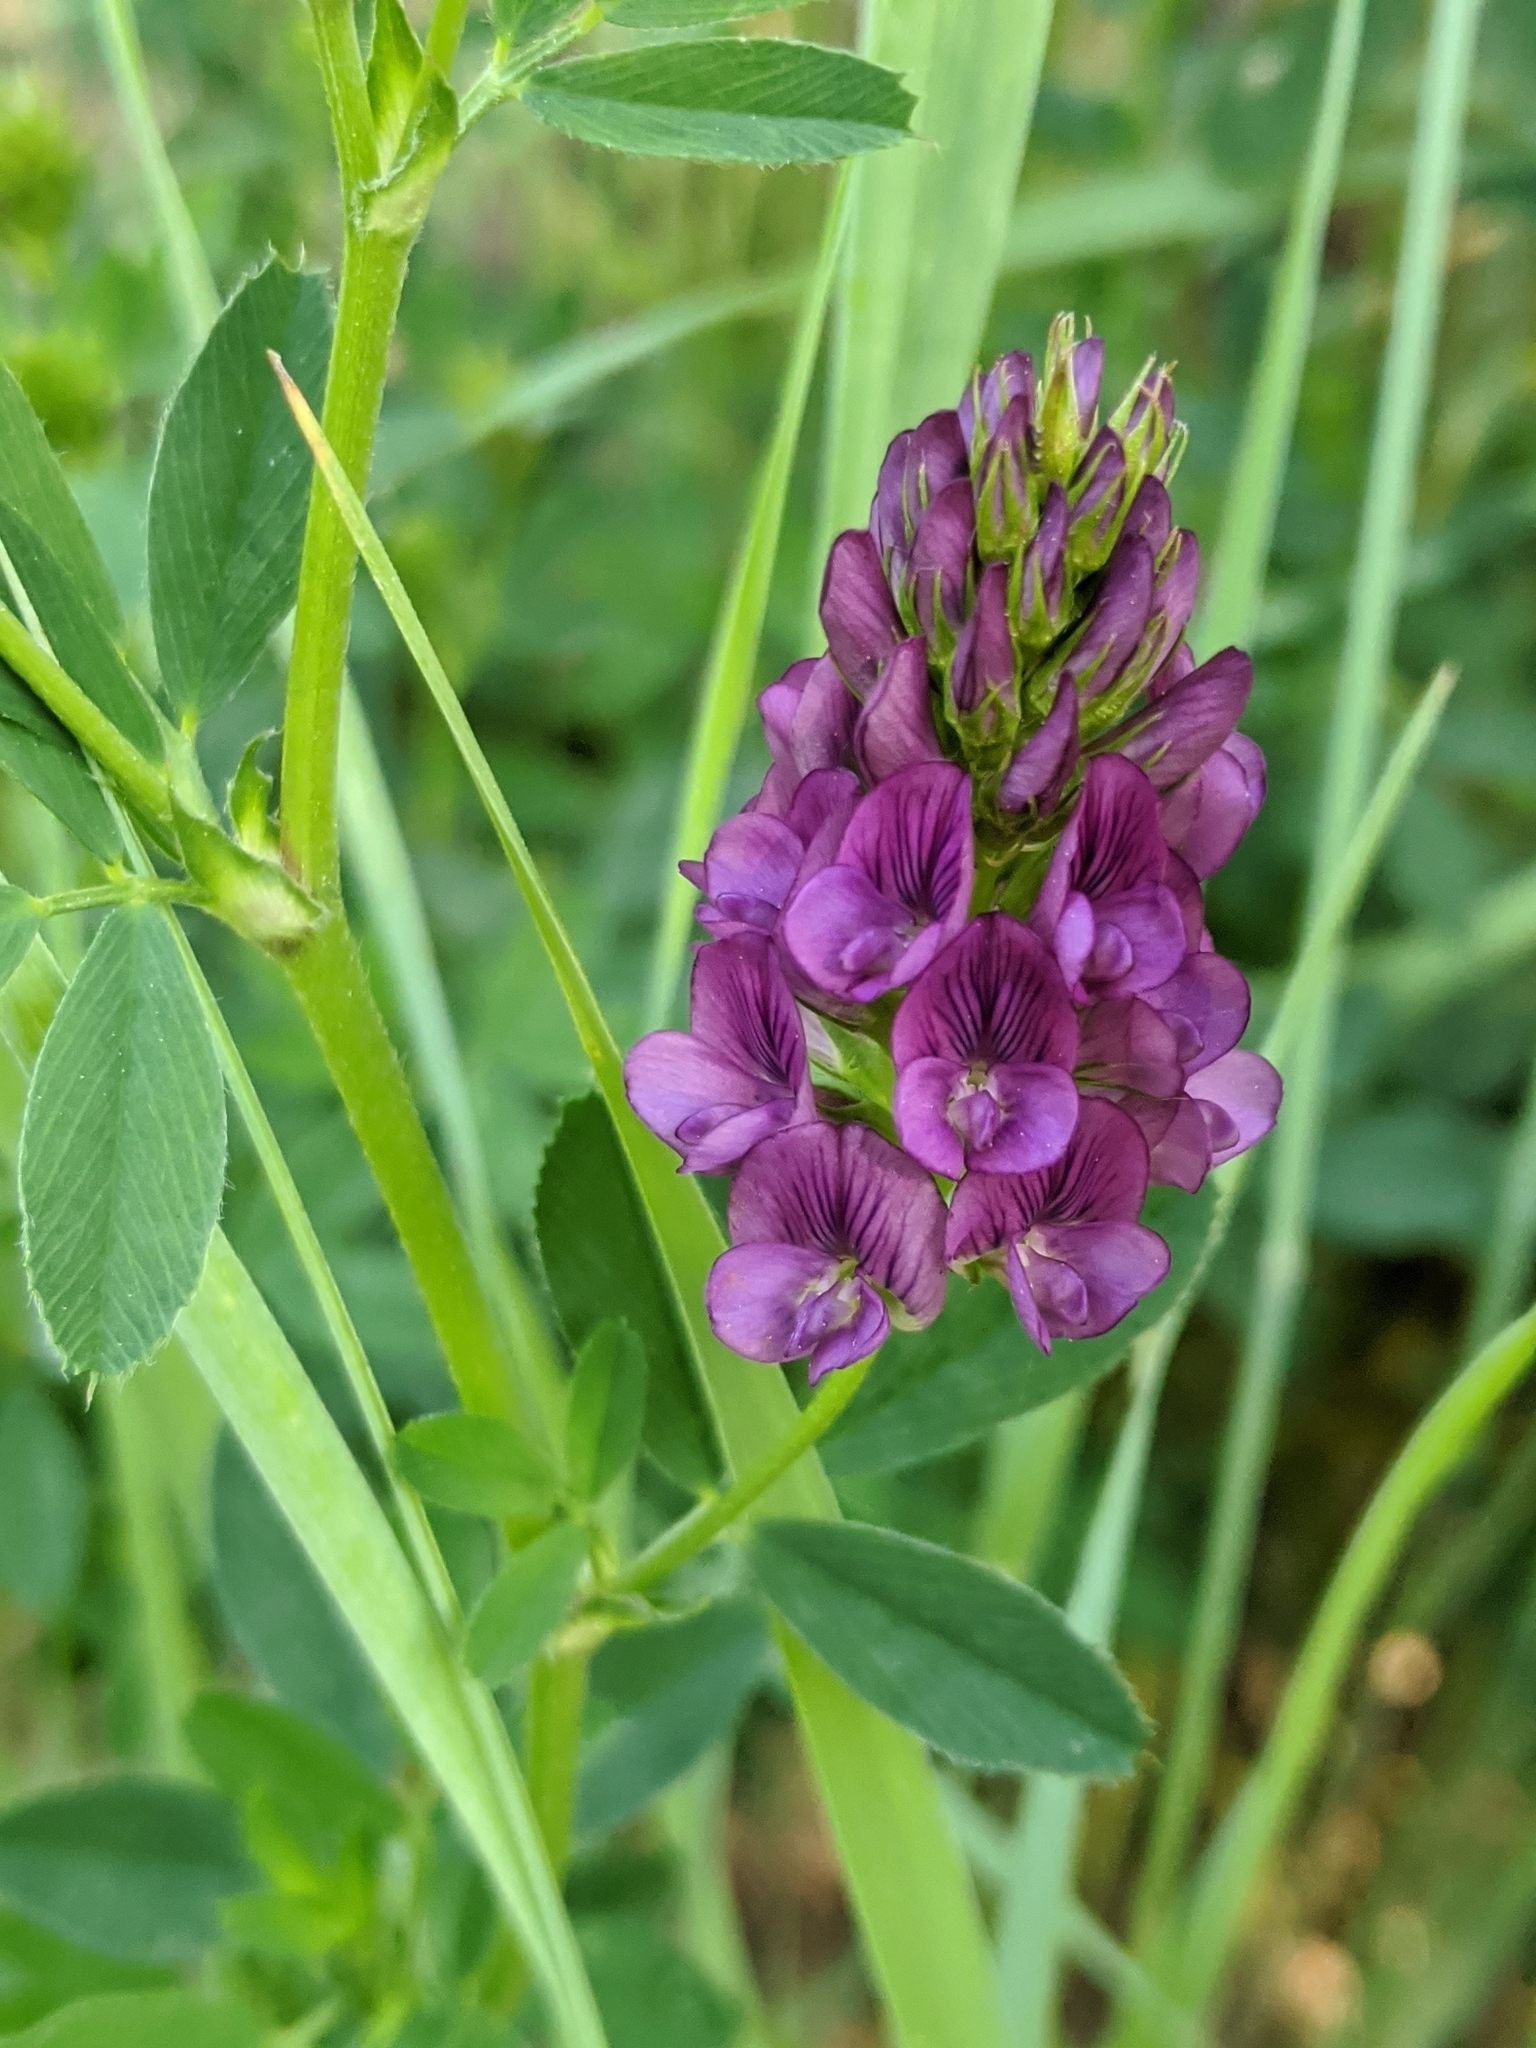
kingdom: Plantae
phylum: Tracheophyta
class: Magnoliopsida
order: Fabales
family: Fabaceae
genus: Medicago
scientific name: Medicago sativa
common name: Alfalfa
